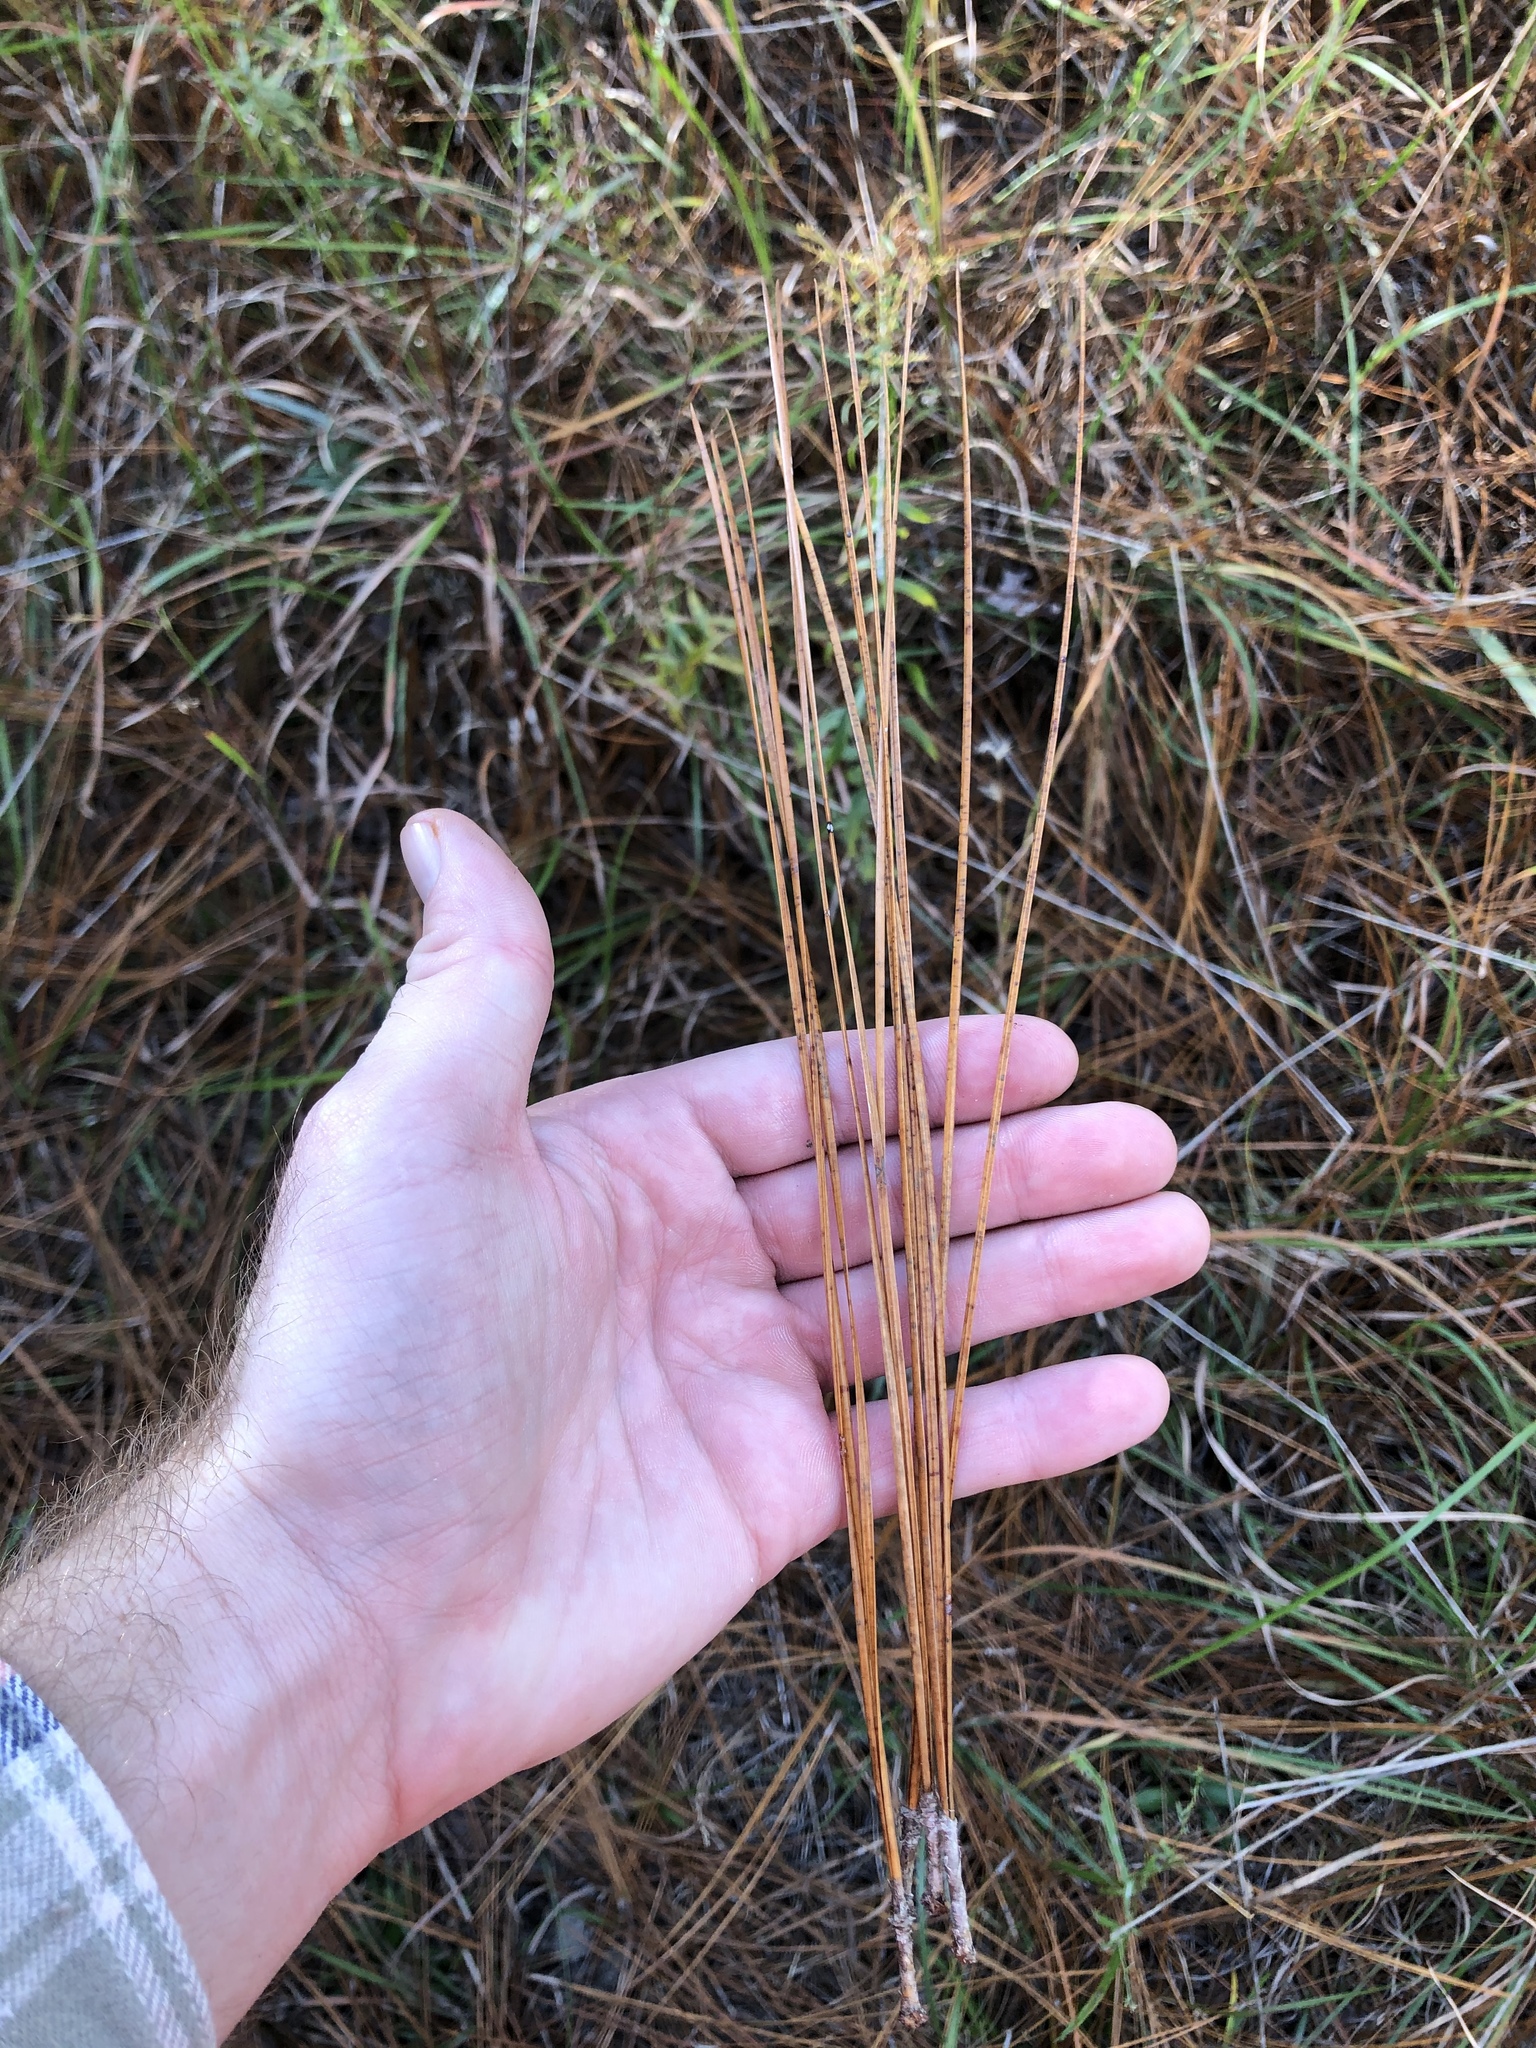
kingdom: Plantae
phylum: Tracheophyta
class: Pinopsida
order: Pinales
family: Pinaceae
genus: Pinus
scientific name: Pinus palustris
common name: Longleaf pine
